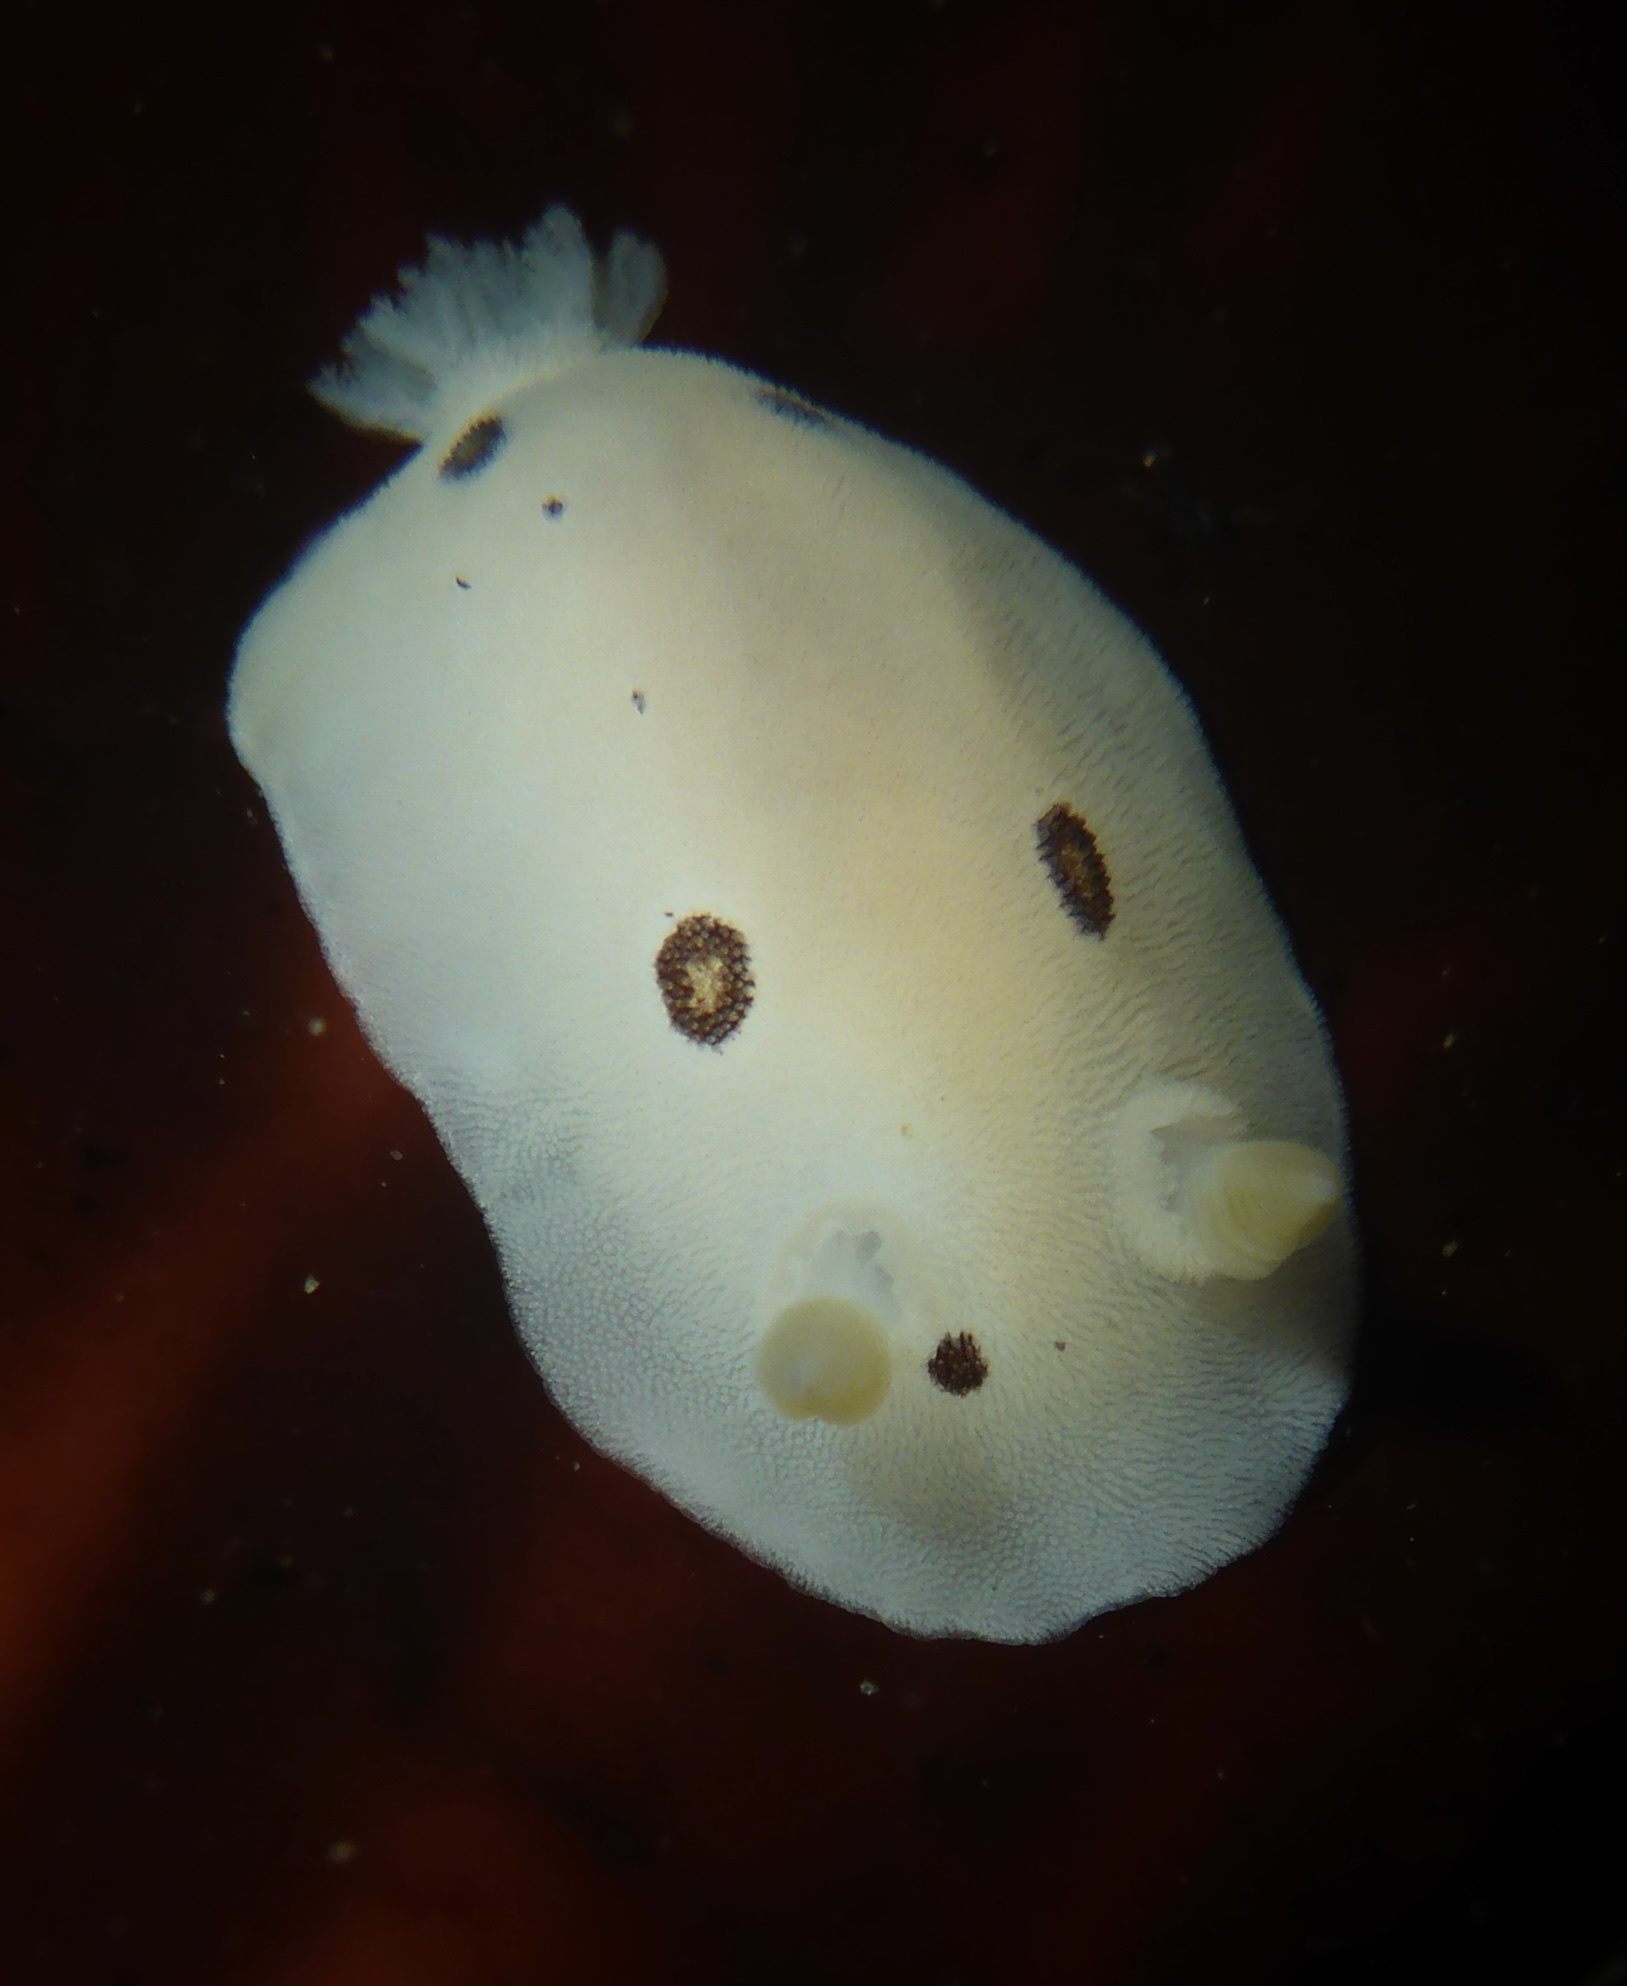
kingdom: Animalia
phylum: Mollusca
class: Gastropoda
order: Nudibranchia
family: Discodorididae
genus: Diaulula
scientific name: Diaulula sandiegensis
